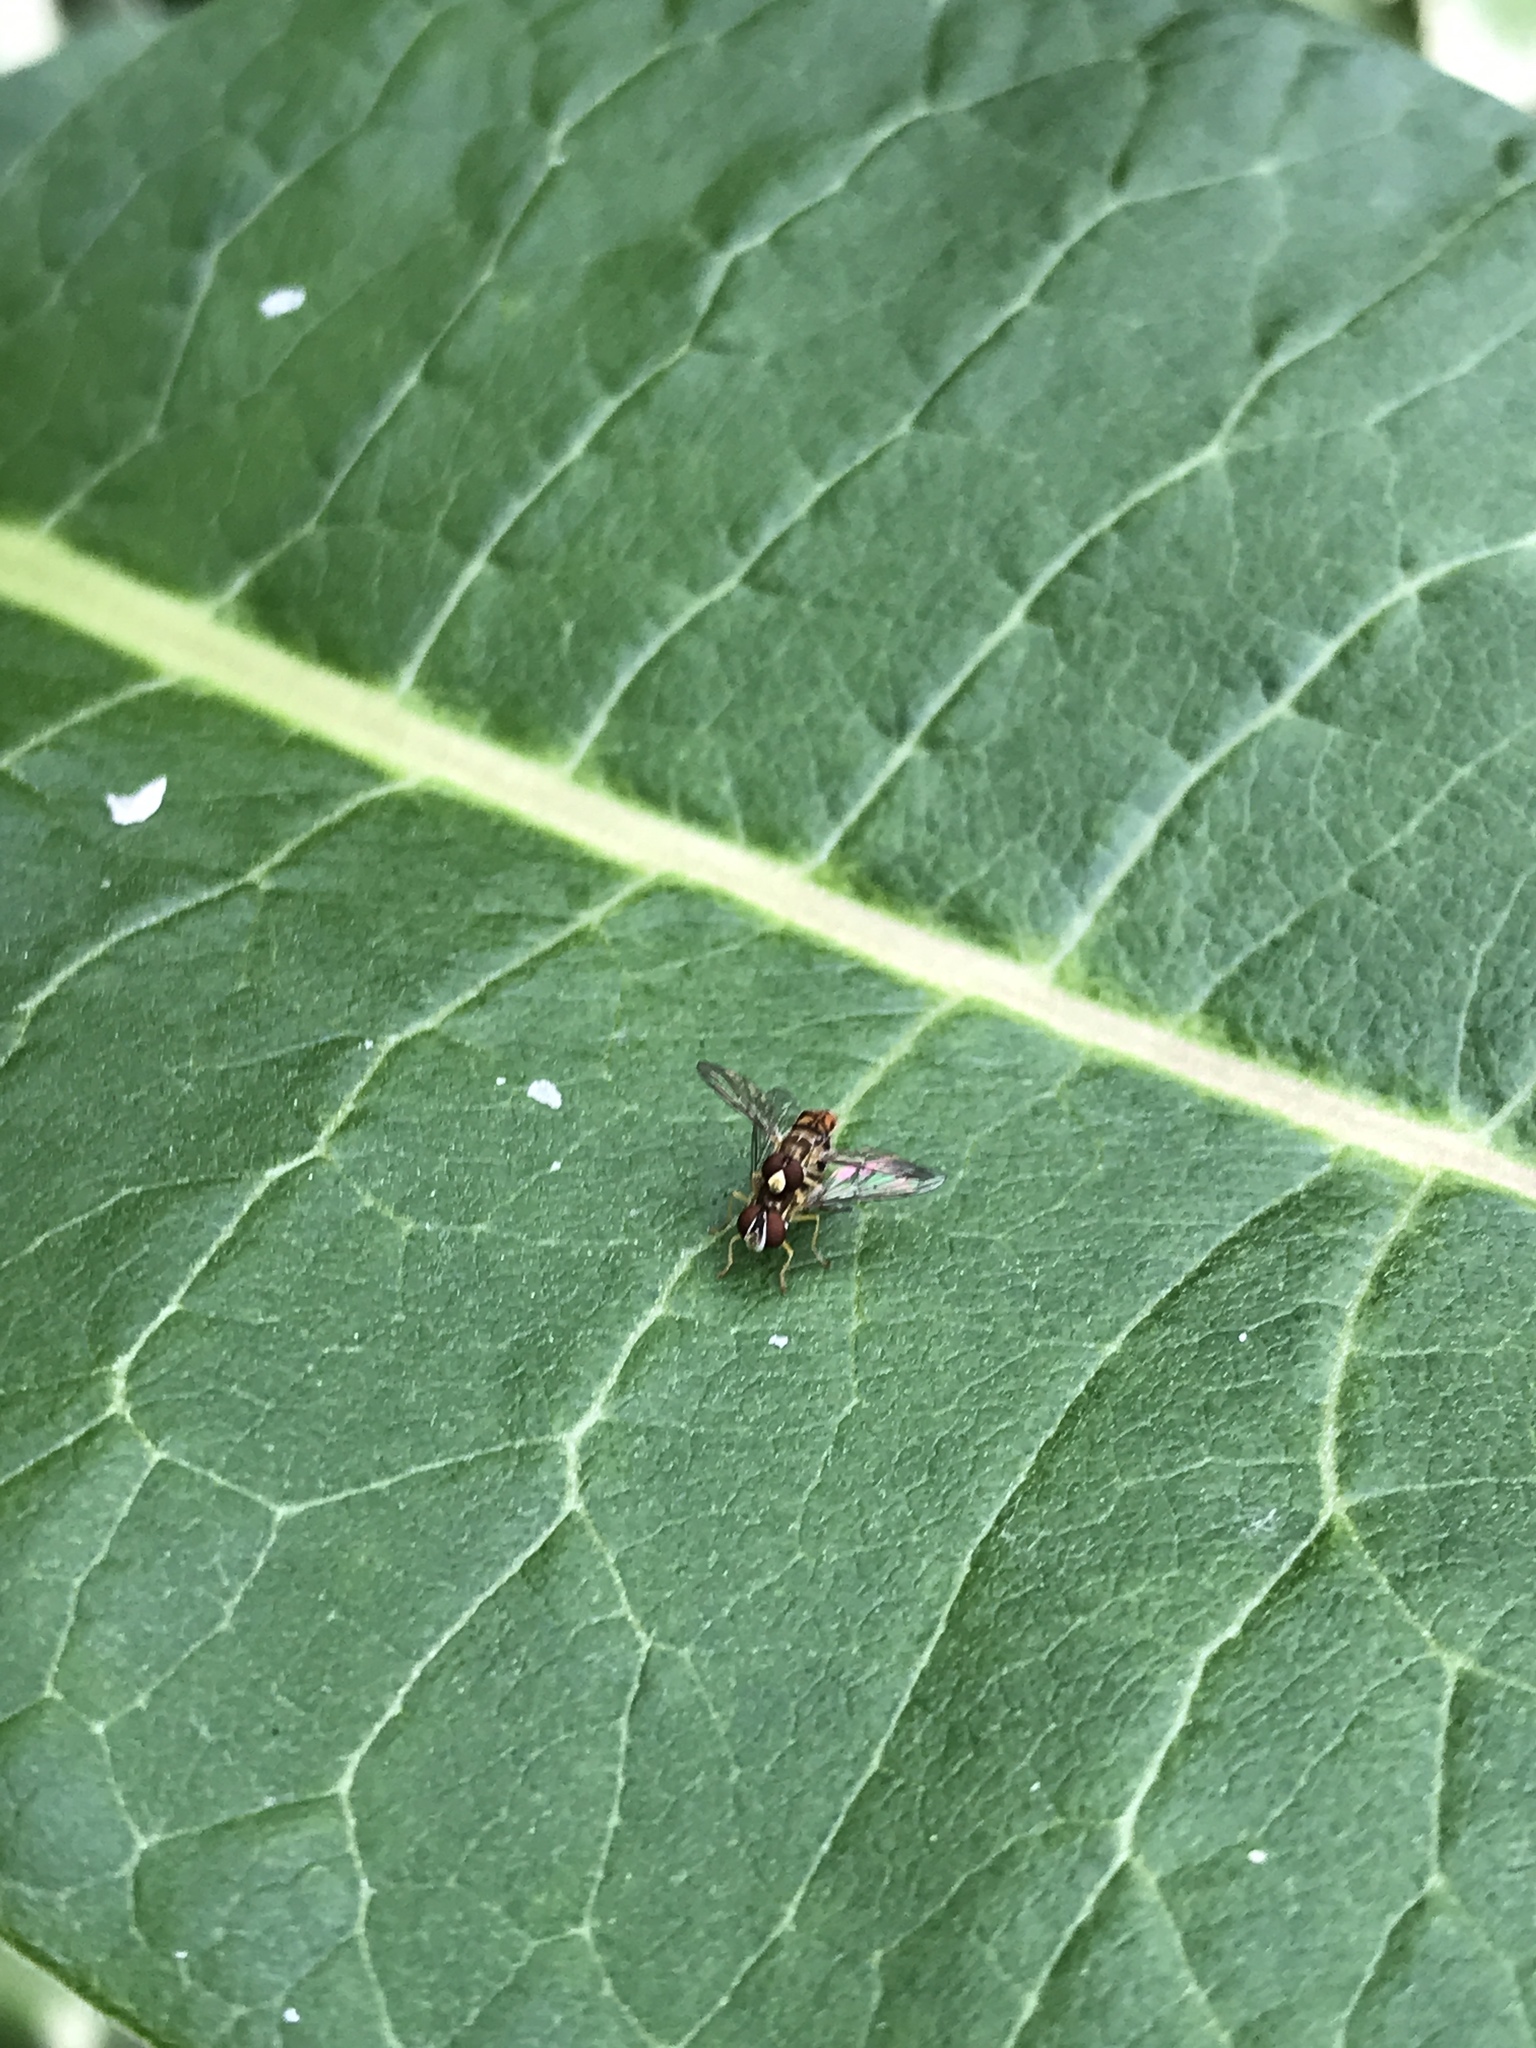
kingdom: Animalia
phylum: Arthropoda
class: Insecta
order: Diptera
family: Syrphidae
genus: Toxomerus
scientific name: Toxomerus marginatus
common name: Syrphid fly
